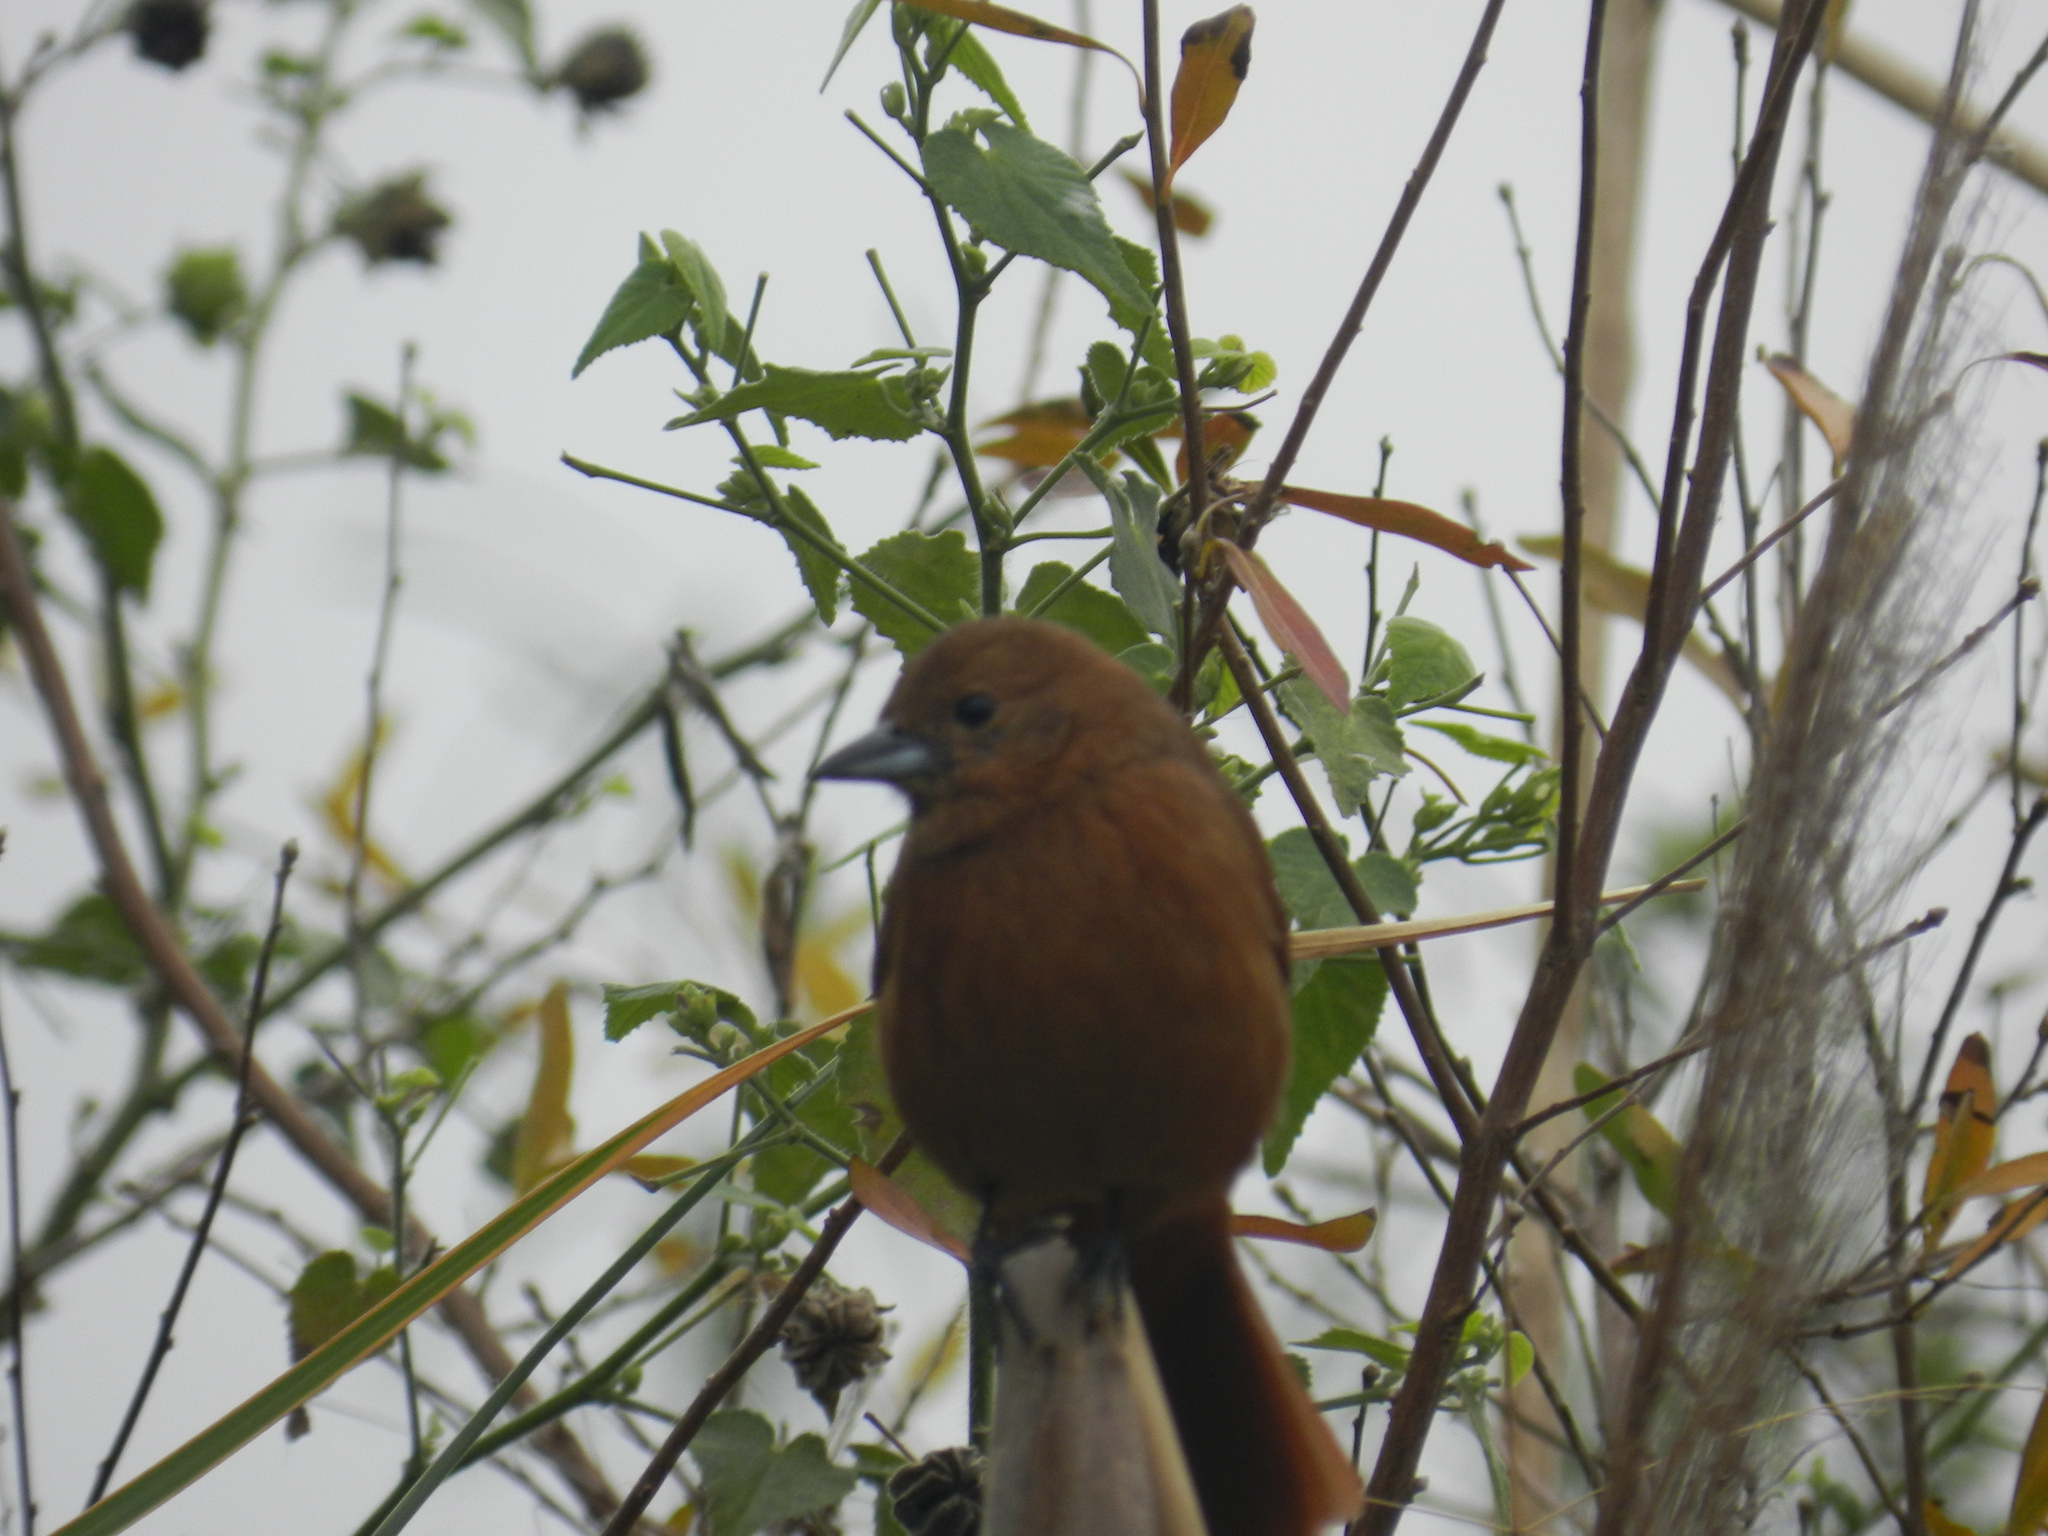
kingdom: Animalia
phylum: Chordata
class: Aves
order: Passeriformes
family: Thraupidae
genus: Tachyphonus
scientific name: Tachyphonus rufus
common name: White-lined tanager
